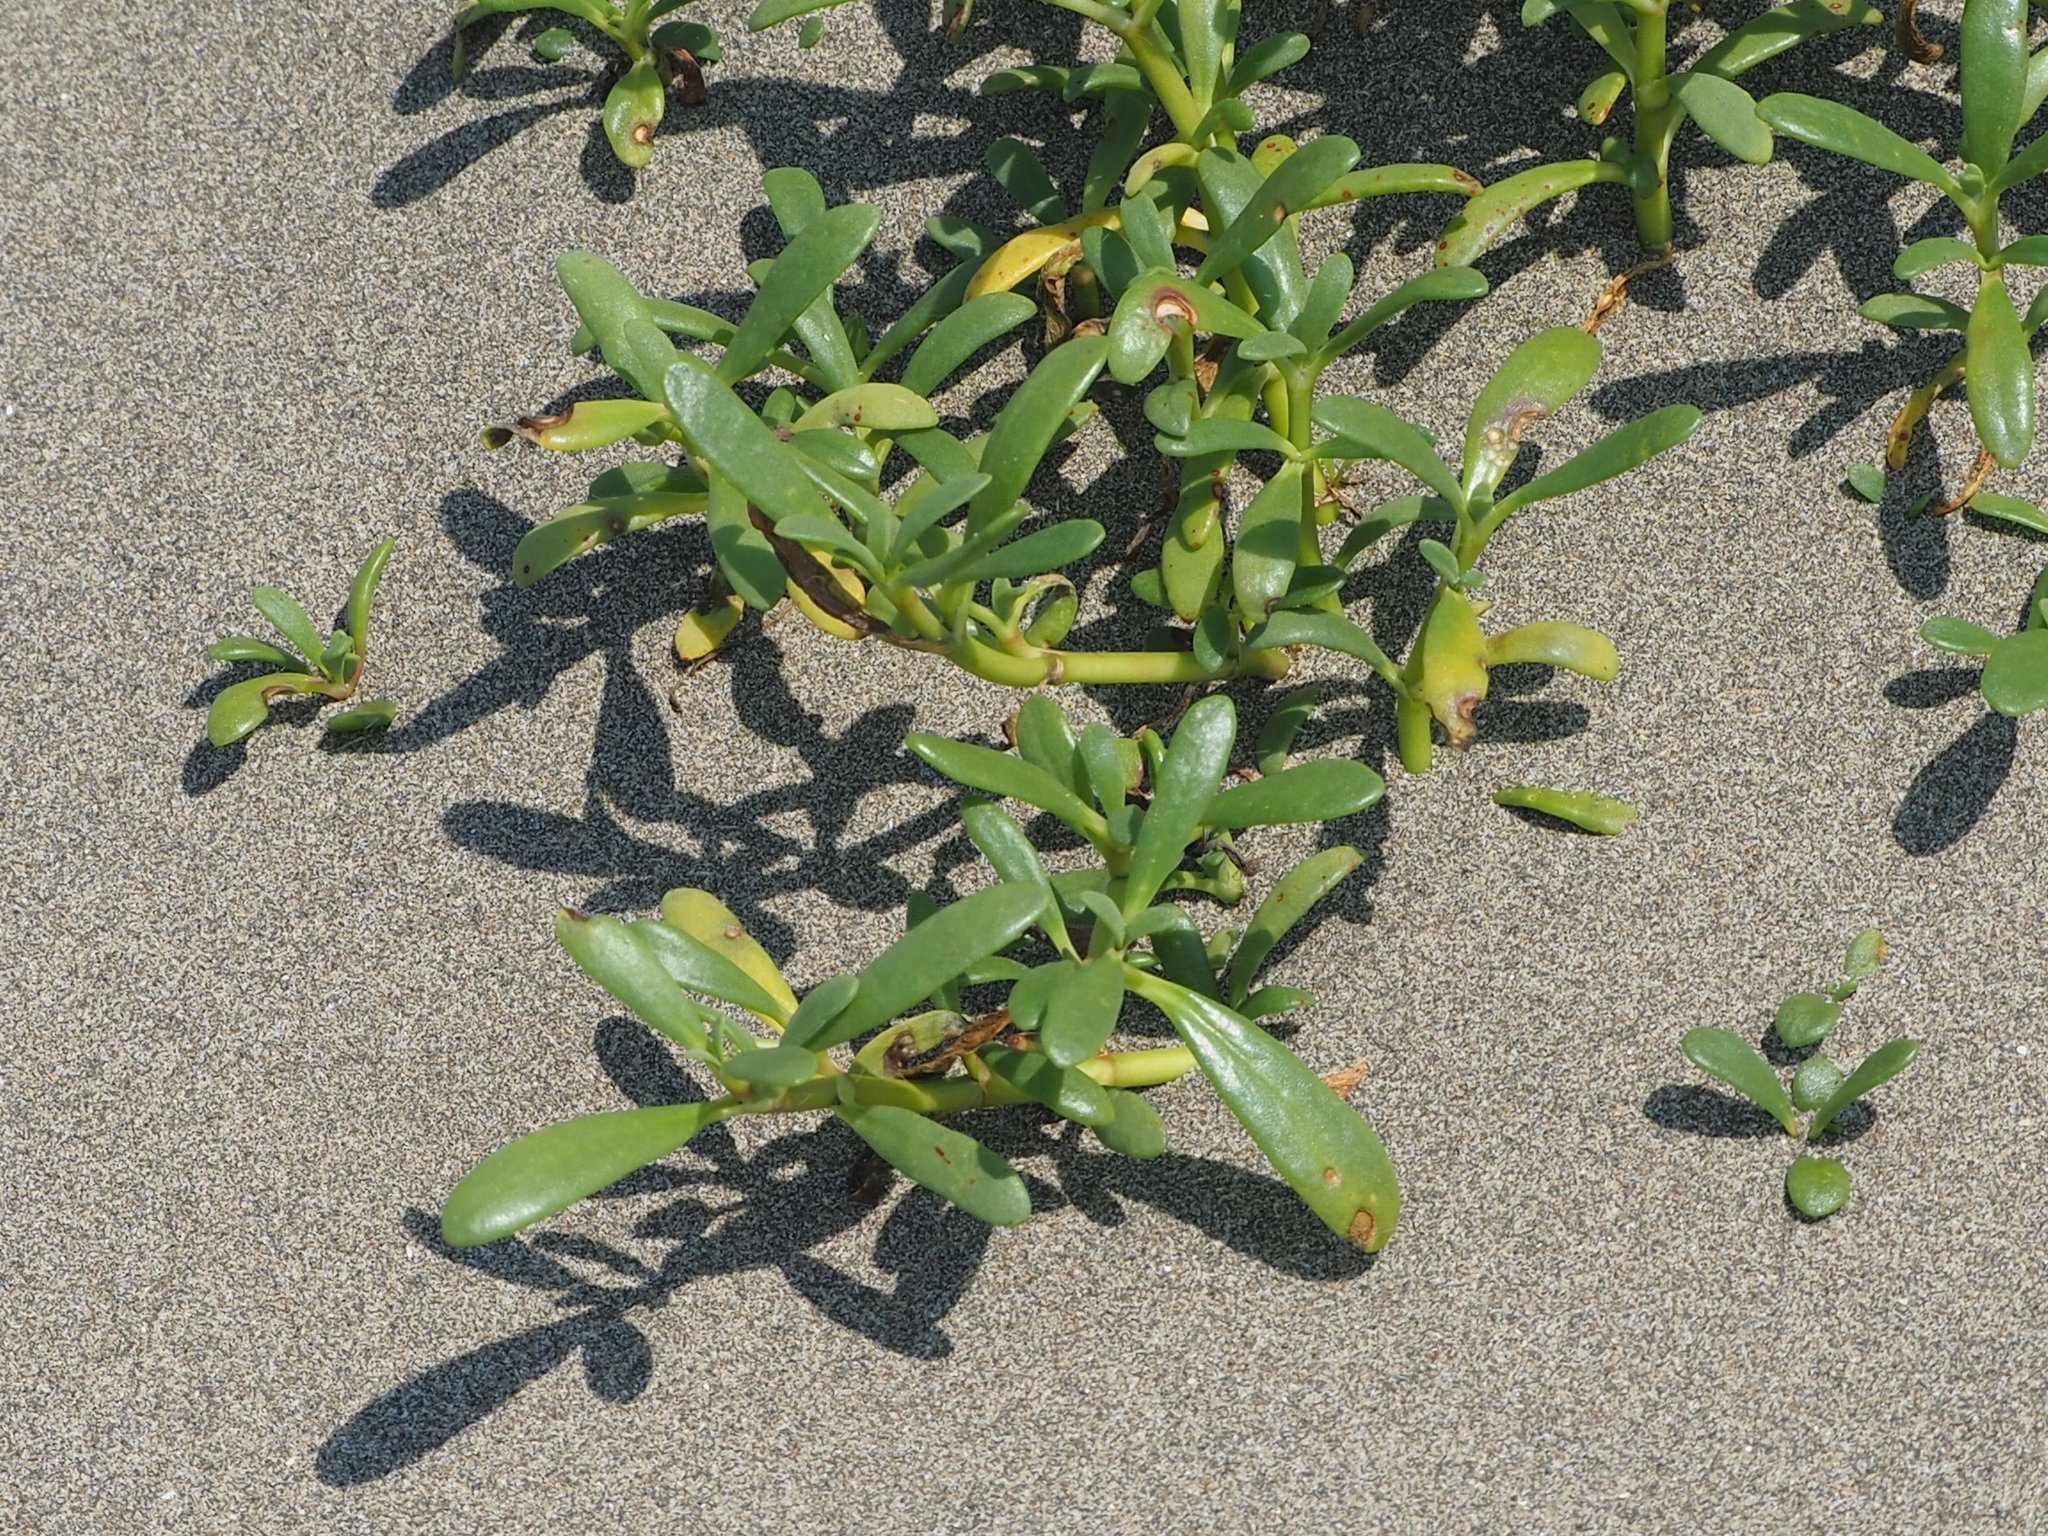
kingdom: Plantae
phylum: Tracheophyta
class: Magnoliopsida
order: Caryophyllales
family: Aizoaceae
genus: Sesuvium
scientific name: Sesuvium portulacastrum
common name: Sea-purslane
